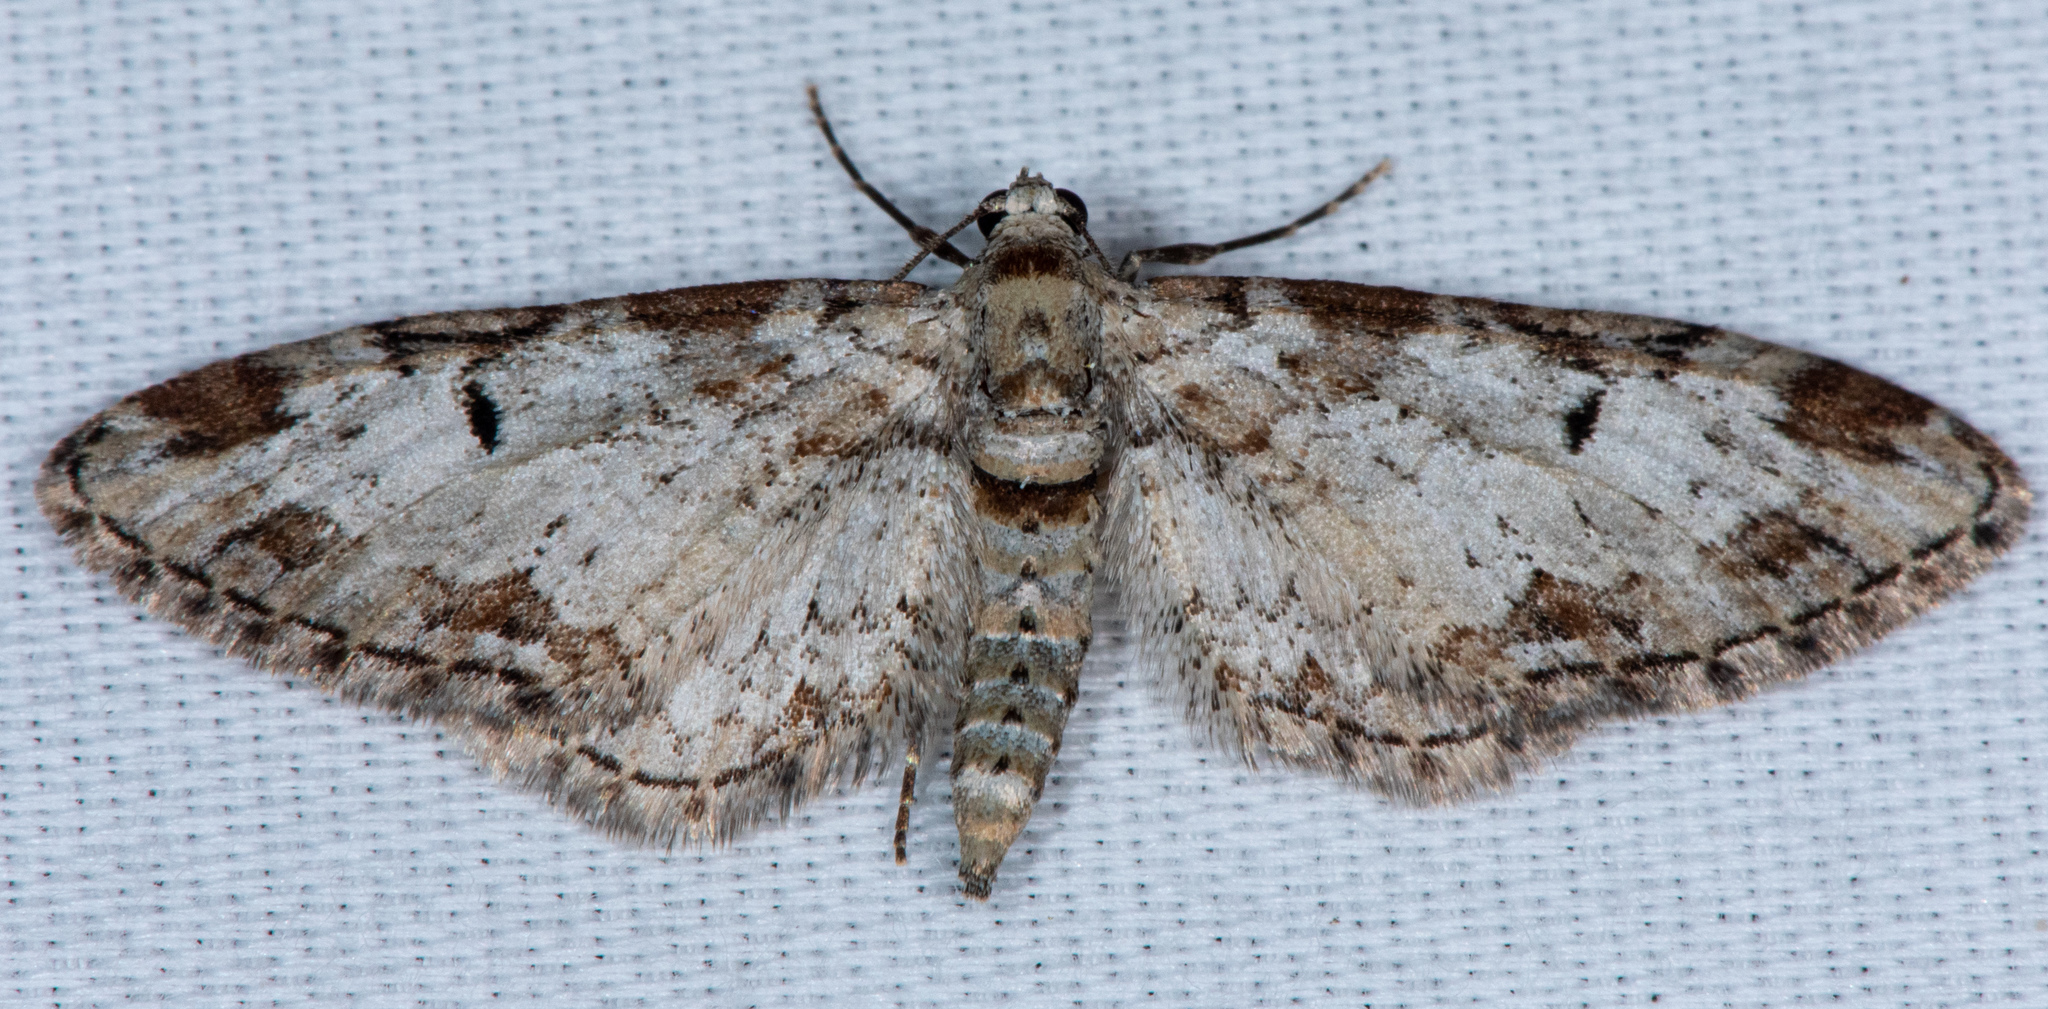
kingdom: Animalia
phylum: Arthropoda
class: Insecta
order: Lepidoptera
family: Geometridae
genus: Eupithecia
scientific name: Eupithecia zelmira
